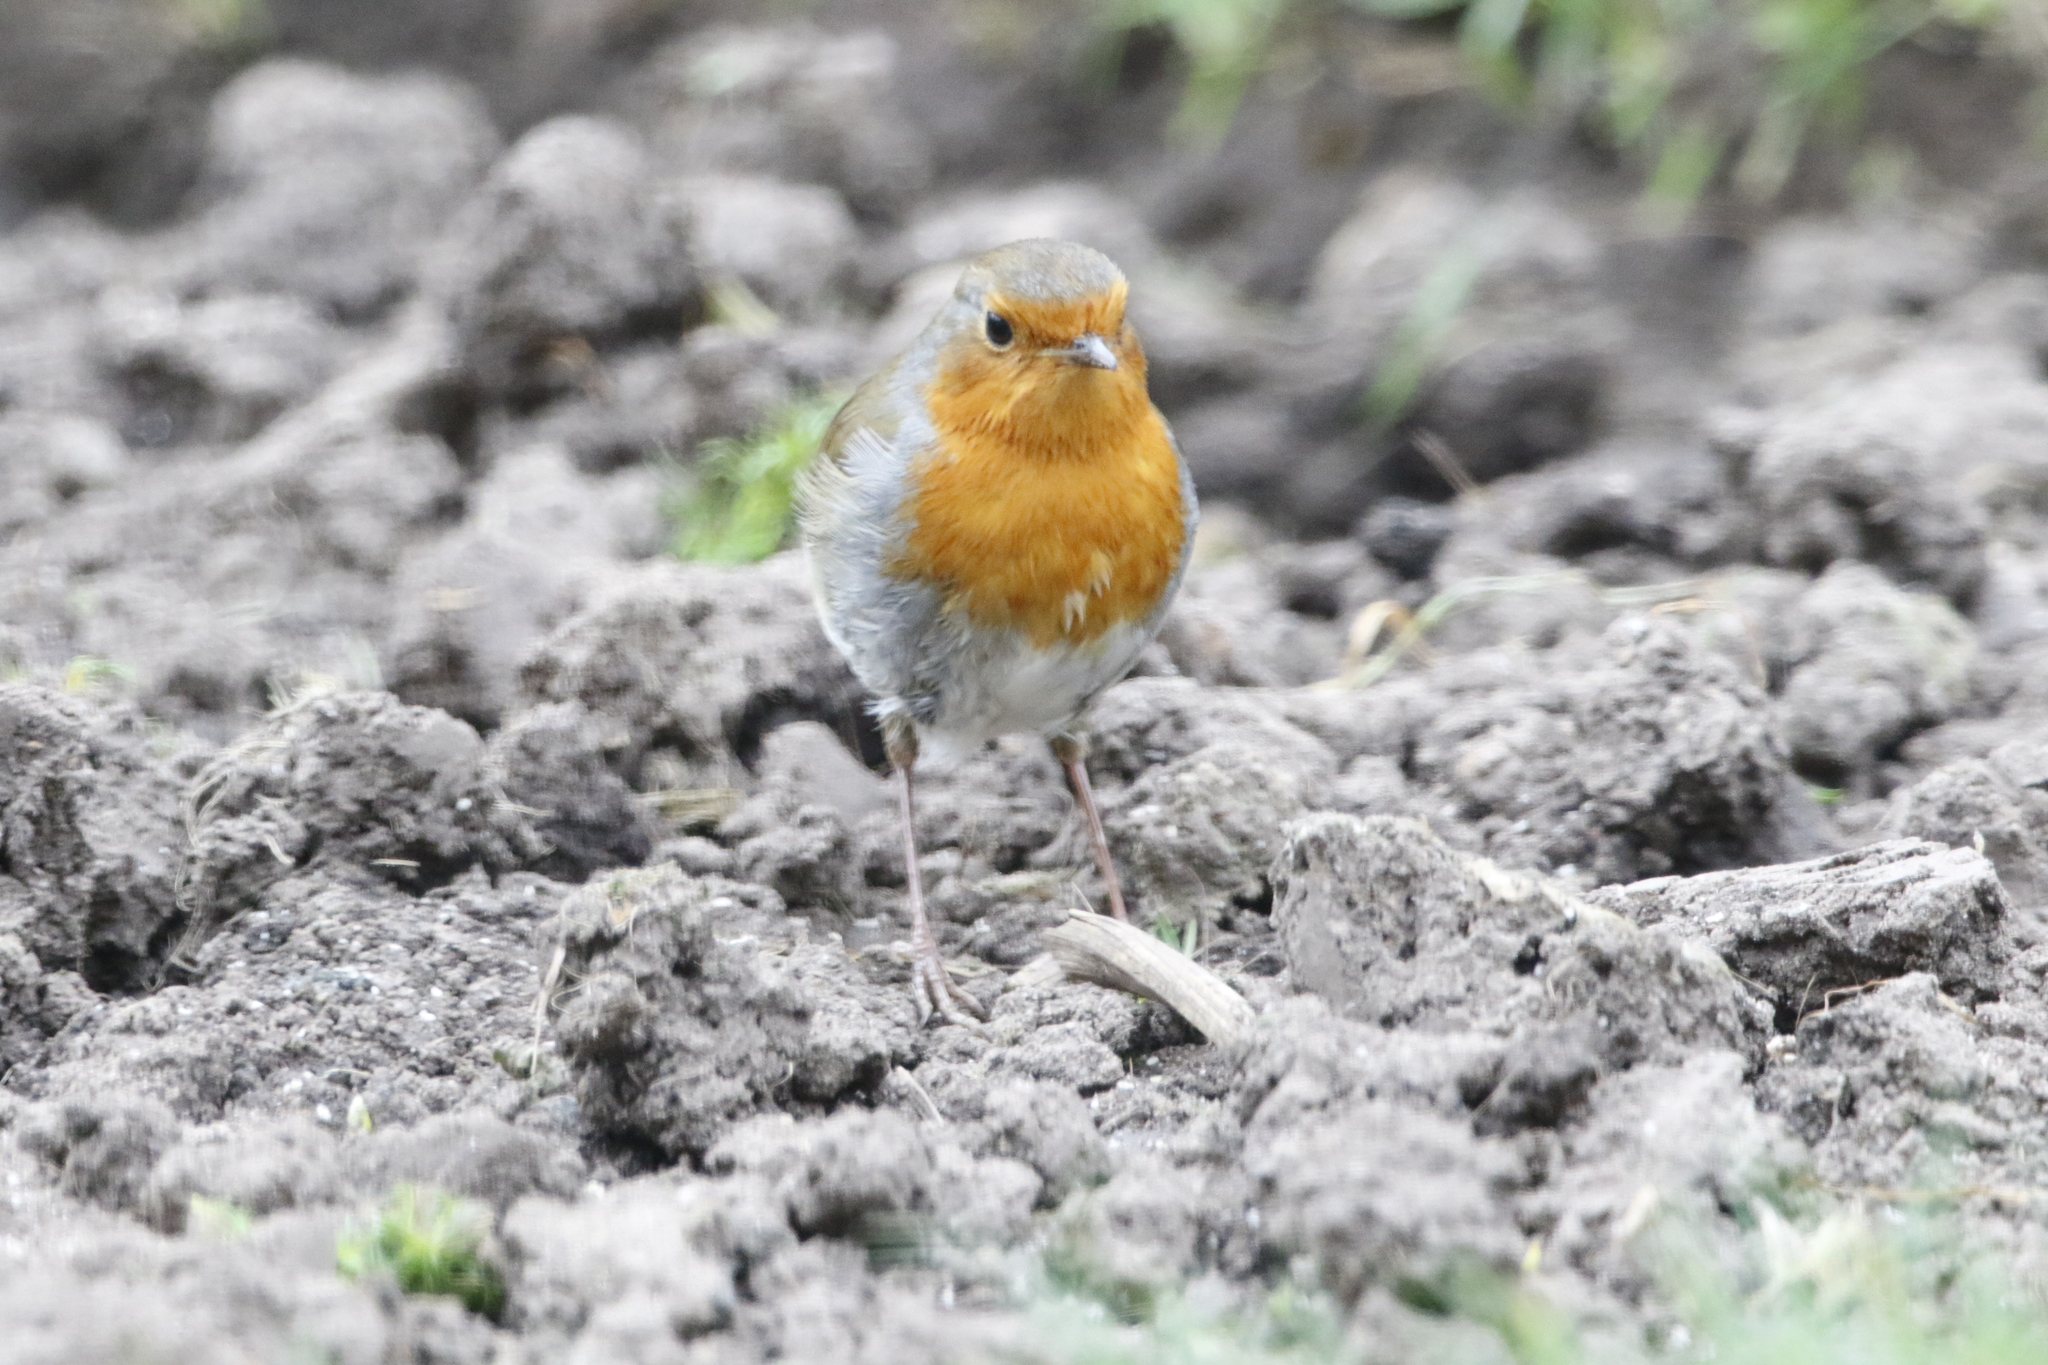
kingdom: Animalia
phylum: Chordata
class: Aves
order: Passeriformes
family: Muscicapidae
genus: Erithacus
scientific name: Erithacus rubecula
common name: European robin
